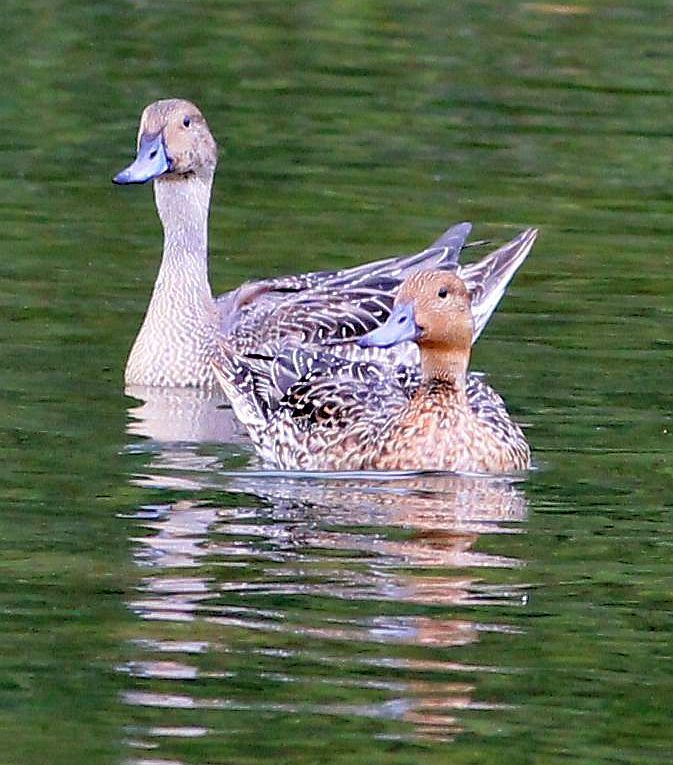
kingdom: Animalia
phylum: Chordata
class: Aves
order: Anseriformes
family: Anatidae
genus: Anas
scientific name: Anas acuta
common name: Northern pintail
